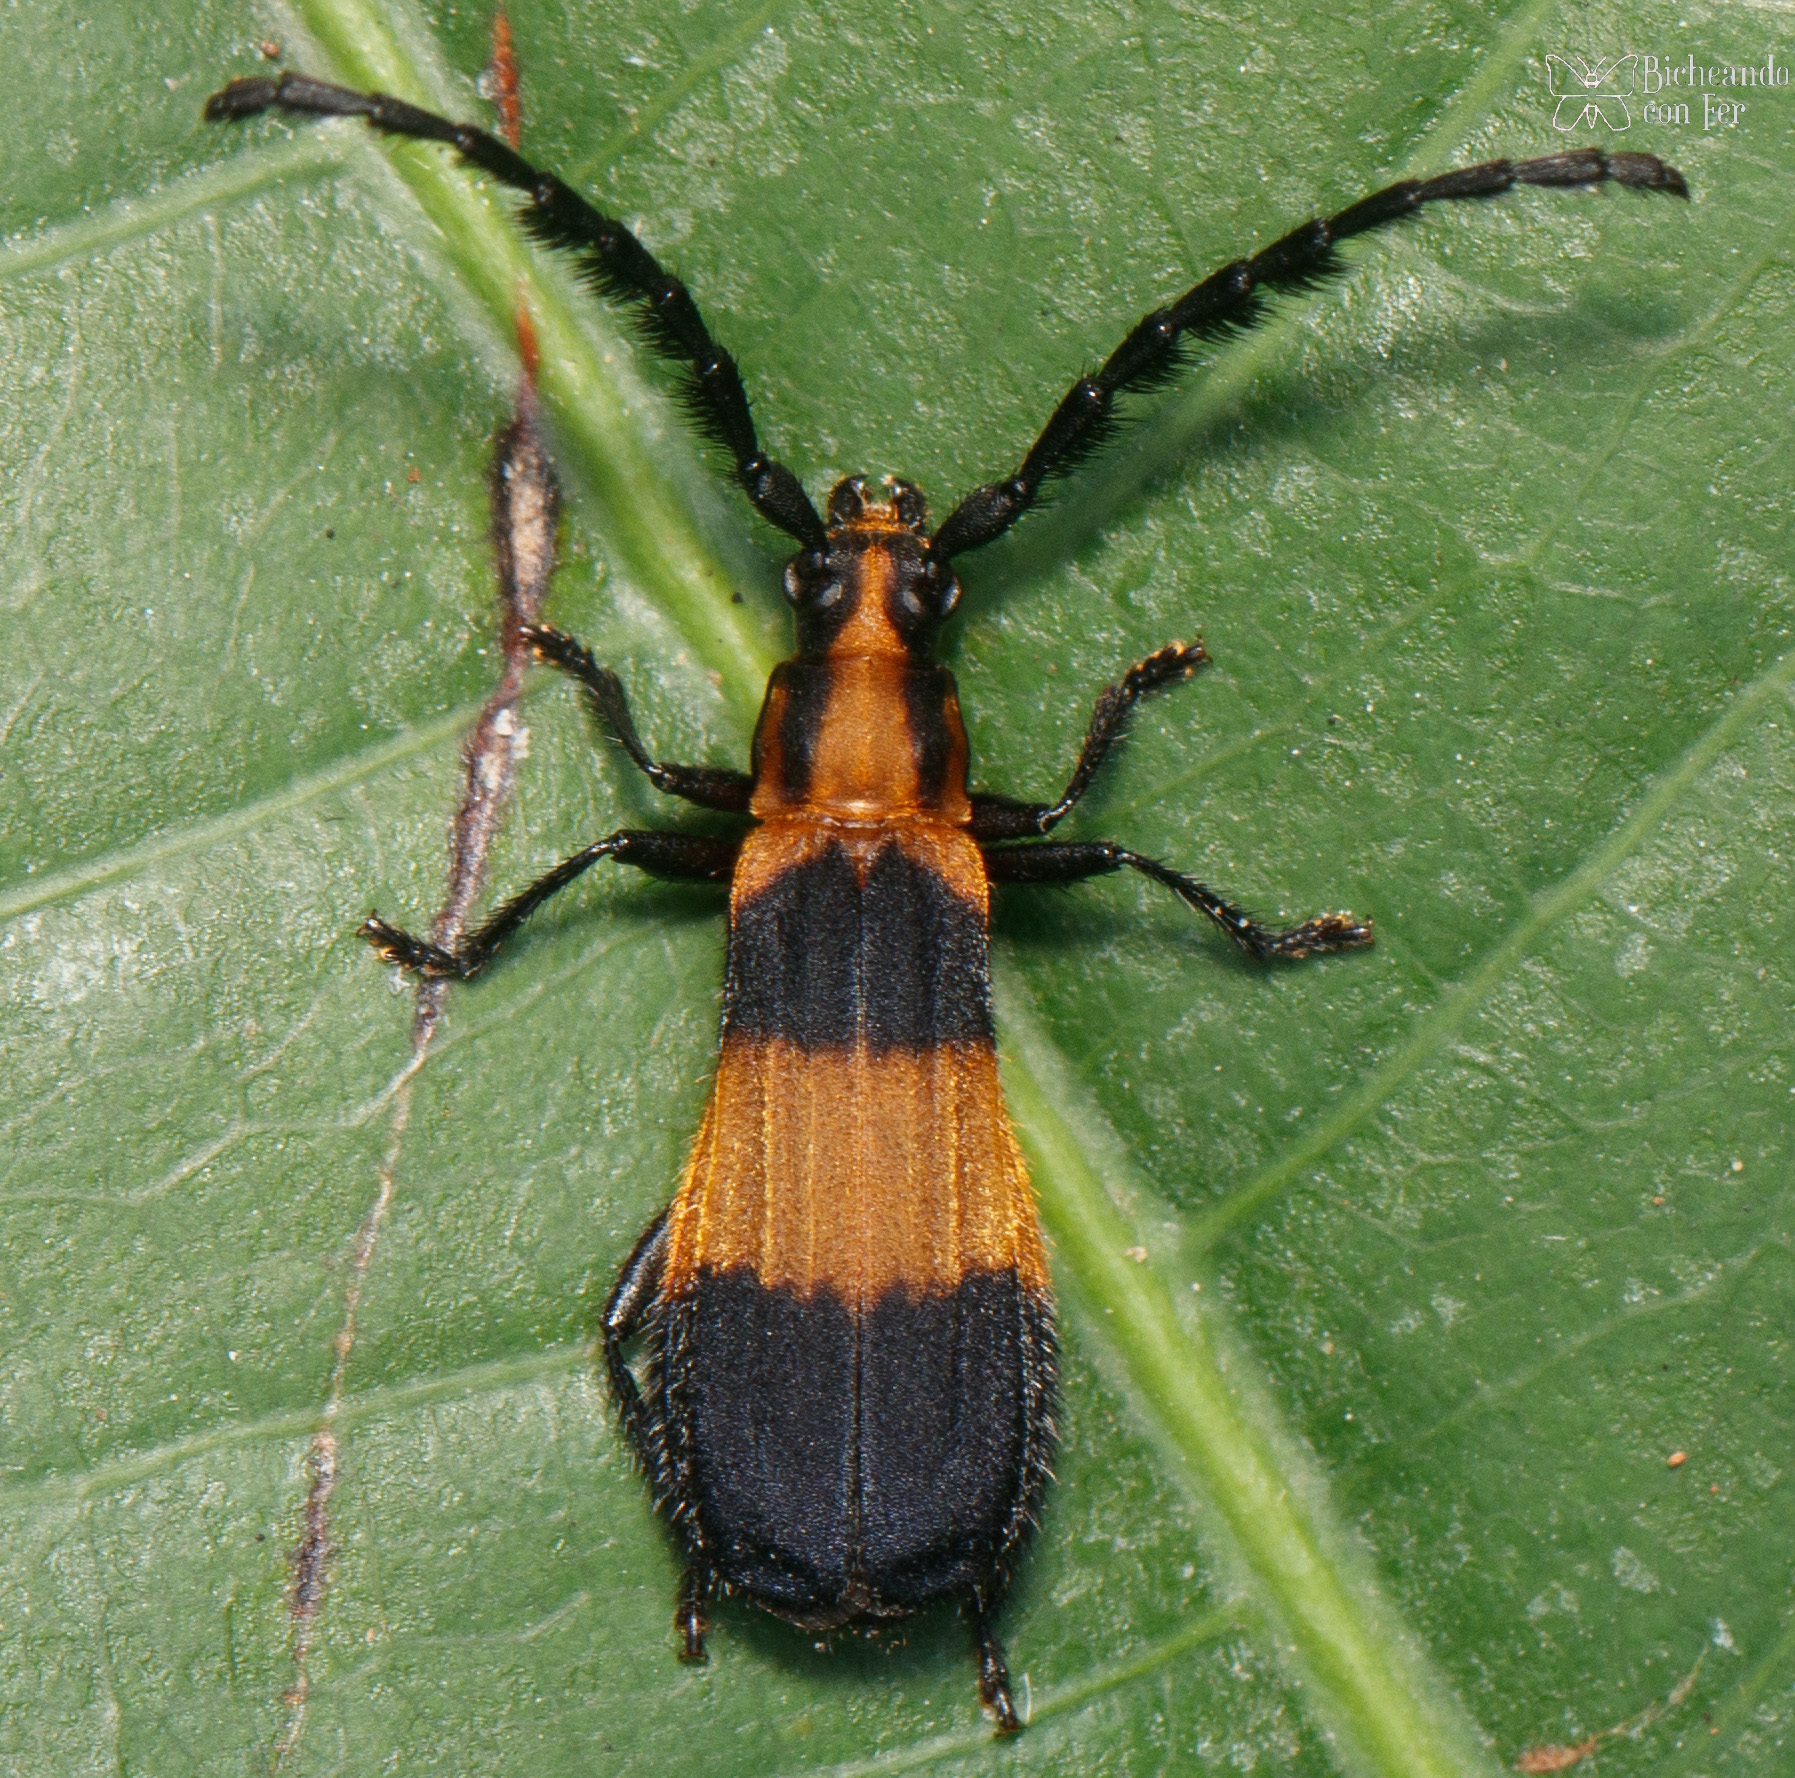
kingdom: Animalia
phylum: Arthropoda
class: Insecta
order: Coleoptera
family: Cerambycidae
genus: Pteroplatus
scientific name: Pteroplatus bilineatus
